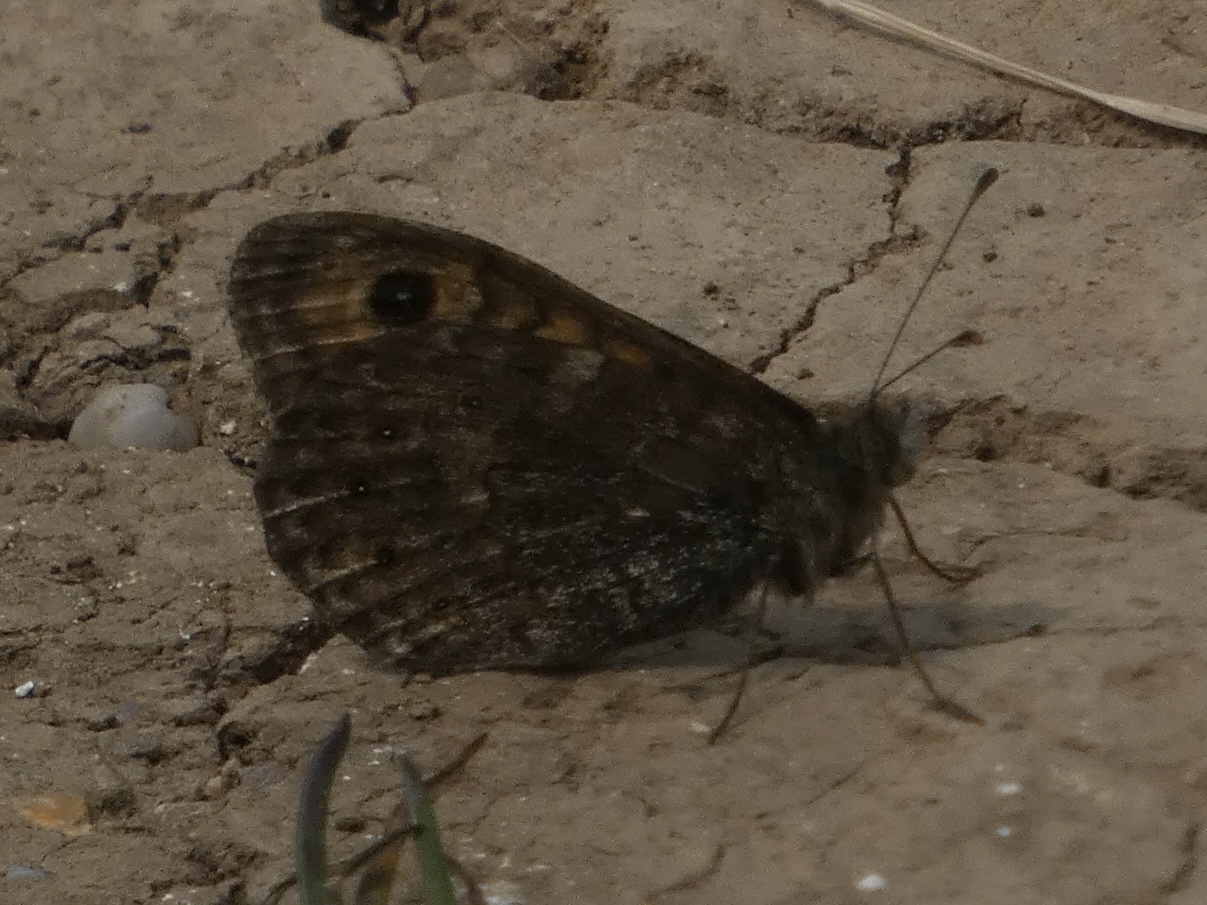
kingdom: Animalia
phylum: Arthropoda
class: Insecta
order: Lepidoptera
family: Nymphalidae
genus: Pararge
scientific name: Pararge Lasiommata megera
